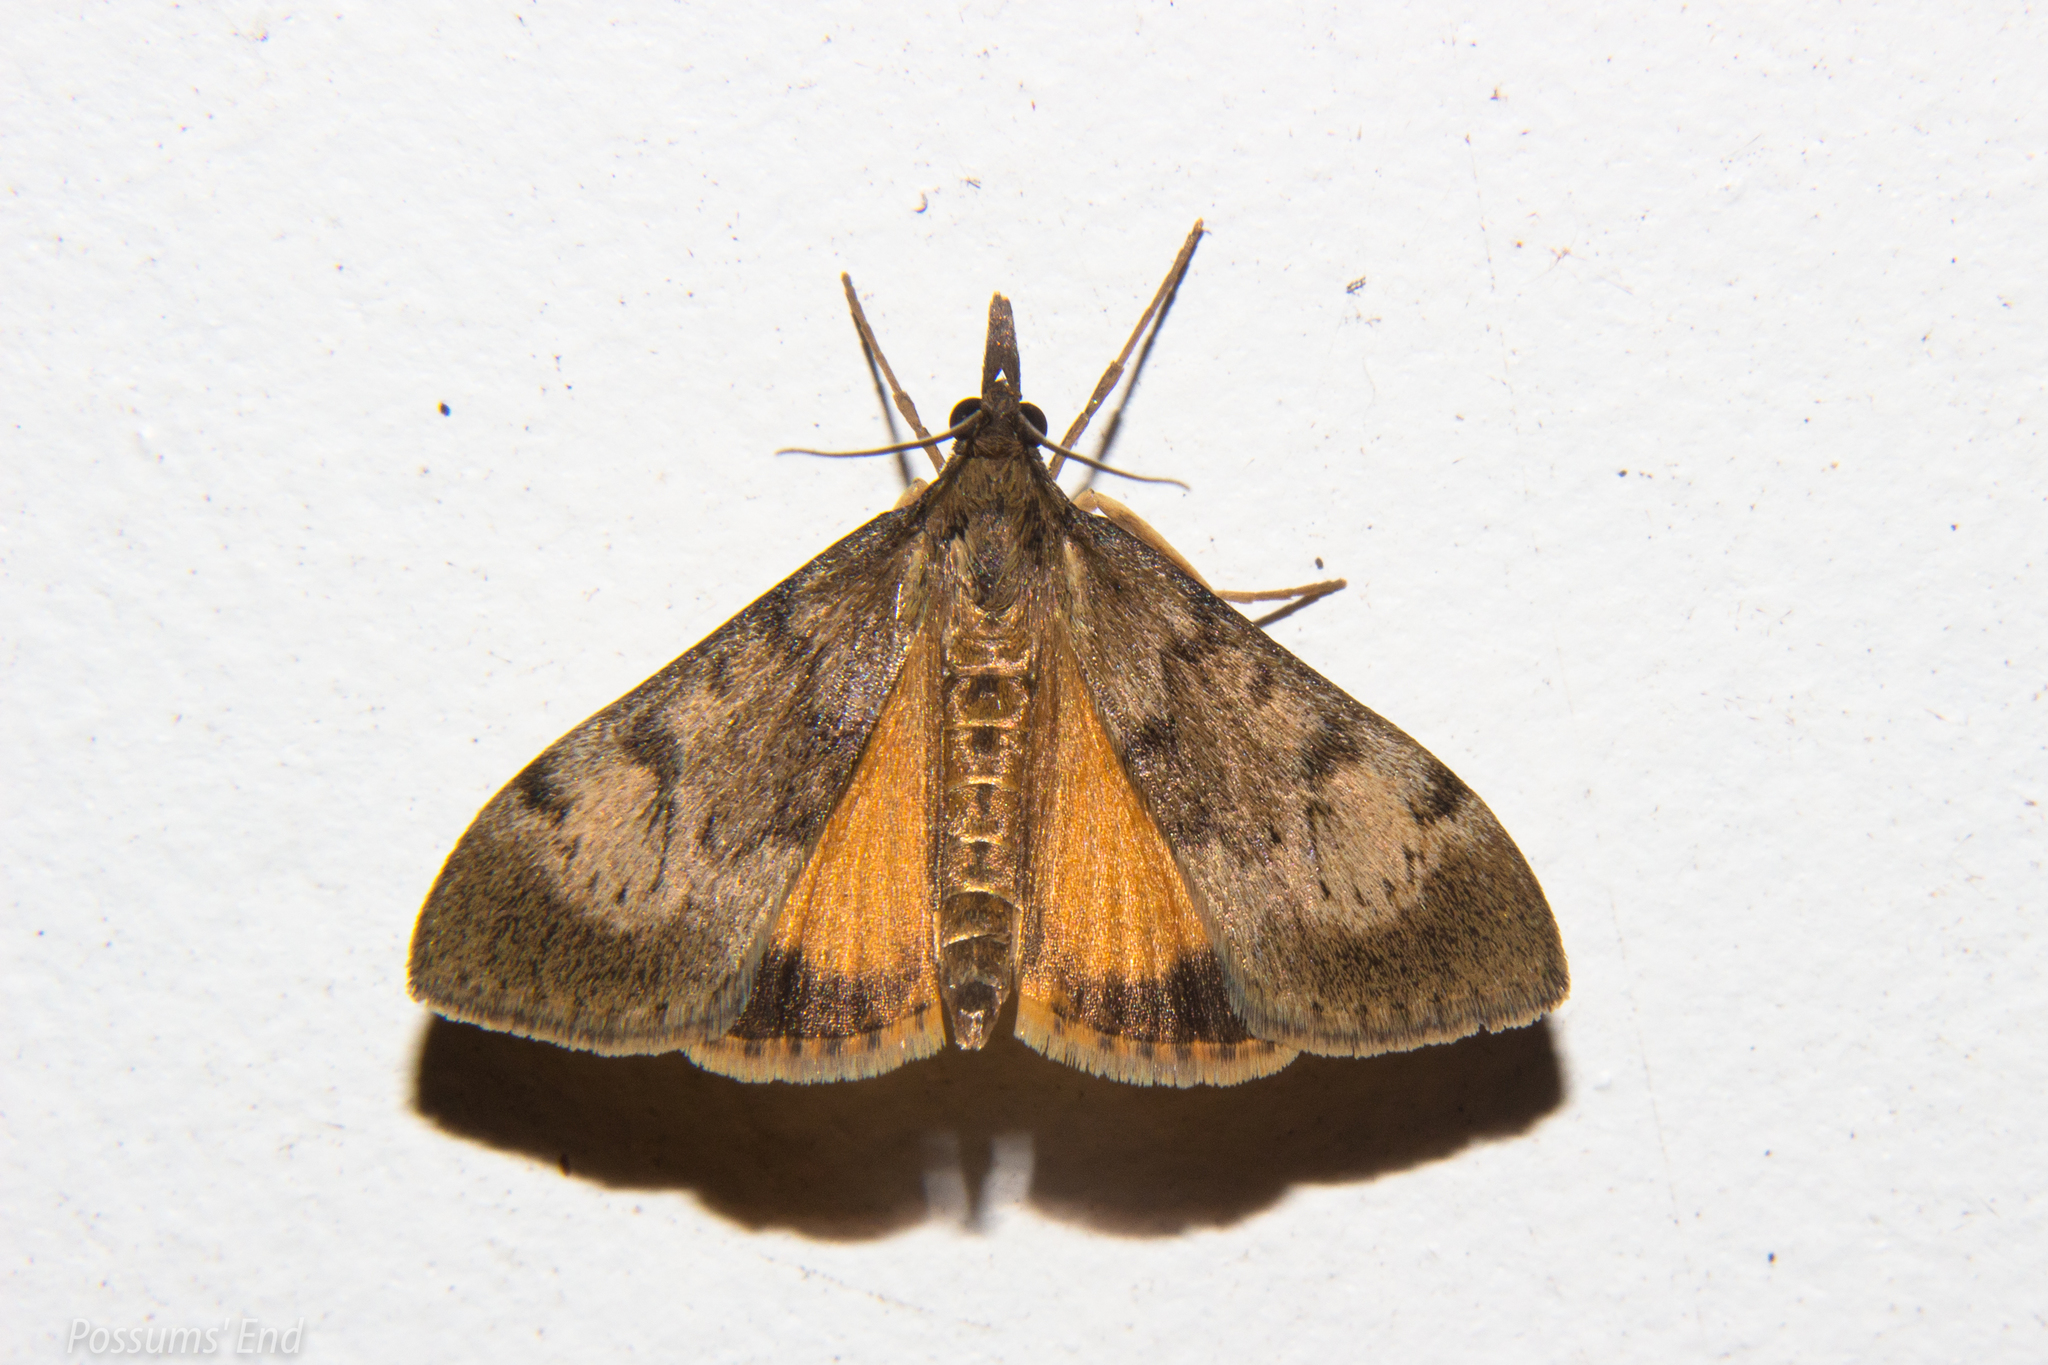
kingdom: Animalia
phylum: Arthropoda
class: Insecta
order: Lepidoptera
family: Crambidae
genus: Uresiphita
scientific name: Uresiphita
